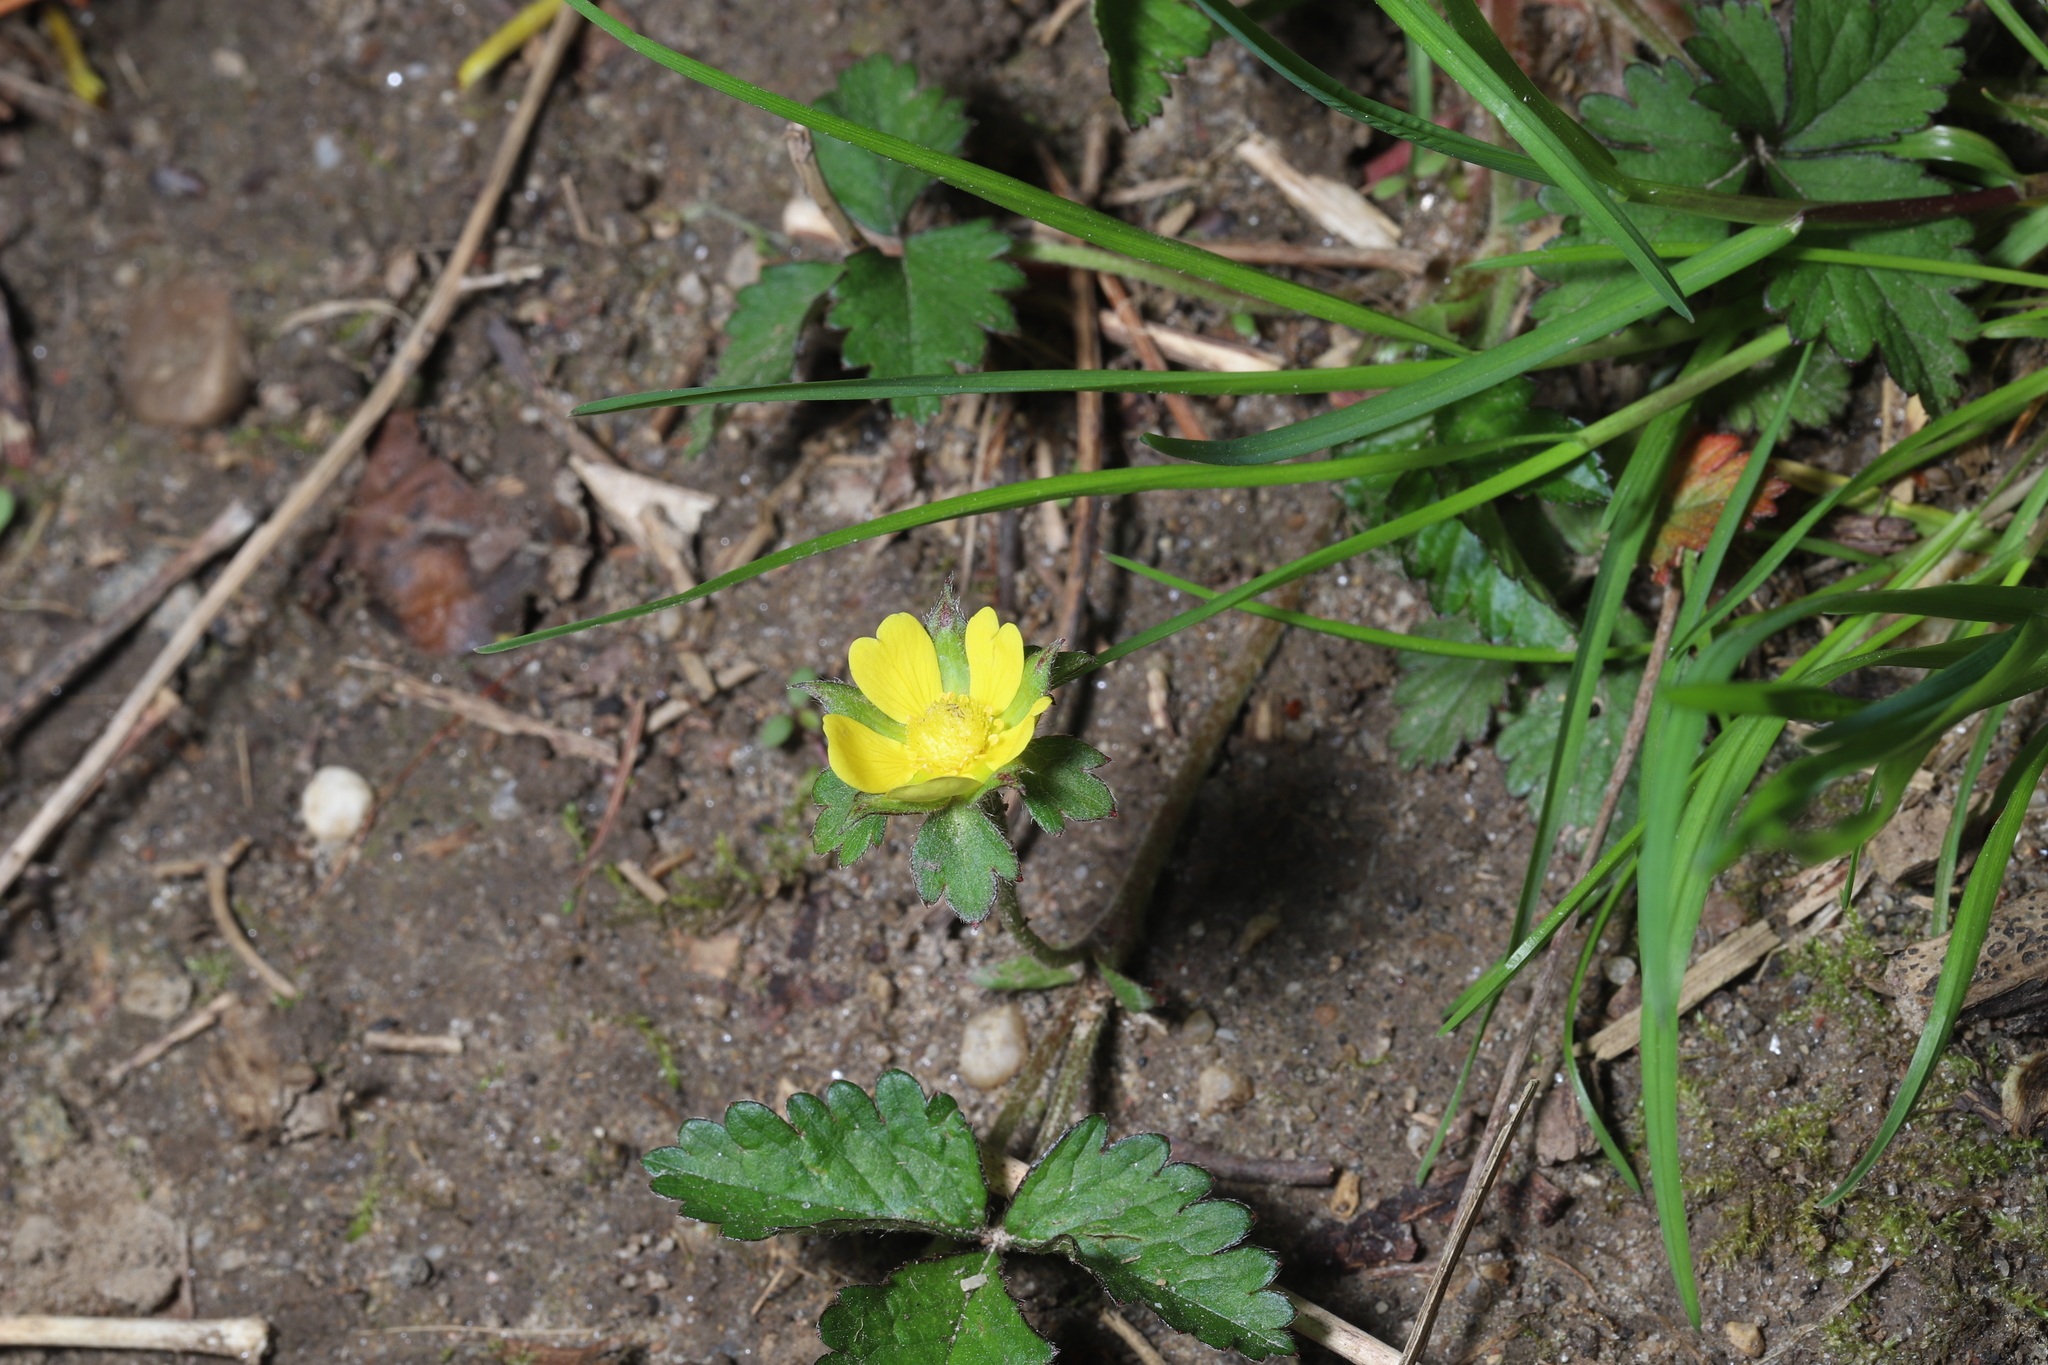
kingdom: Plantae
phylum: Tracheophyta
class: Magnoliopsida
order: Rosales
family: Rosaceae
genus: Potentilla
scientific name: Potentilla indica
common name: Yellow-flowered strawberry
